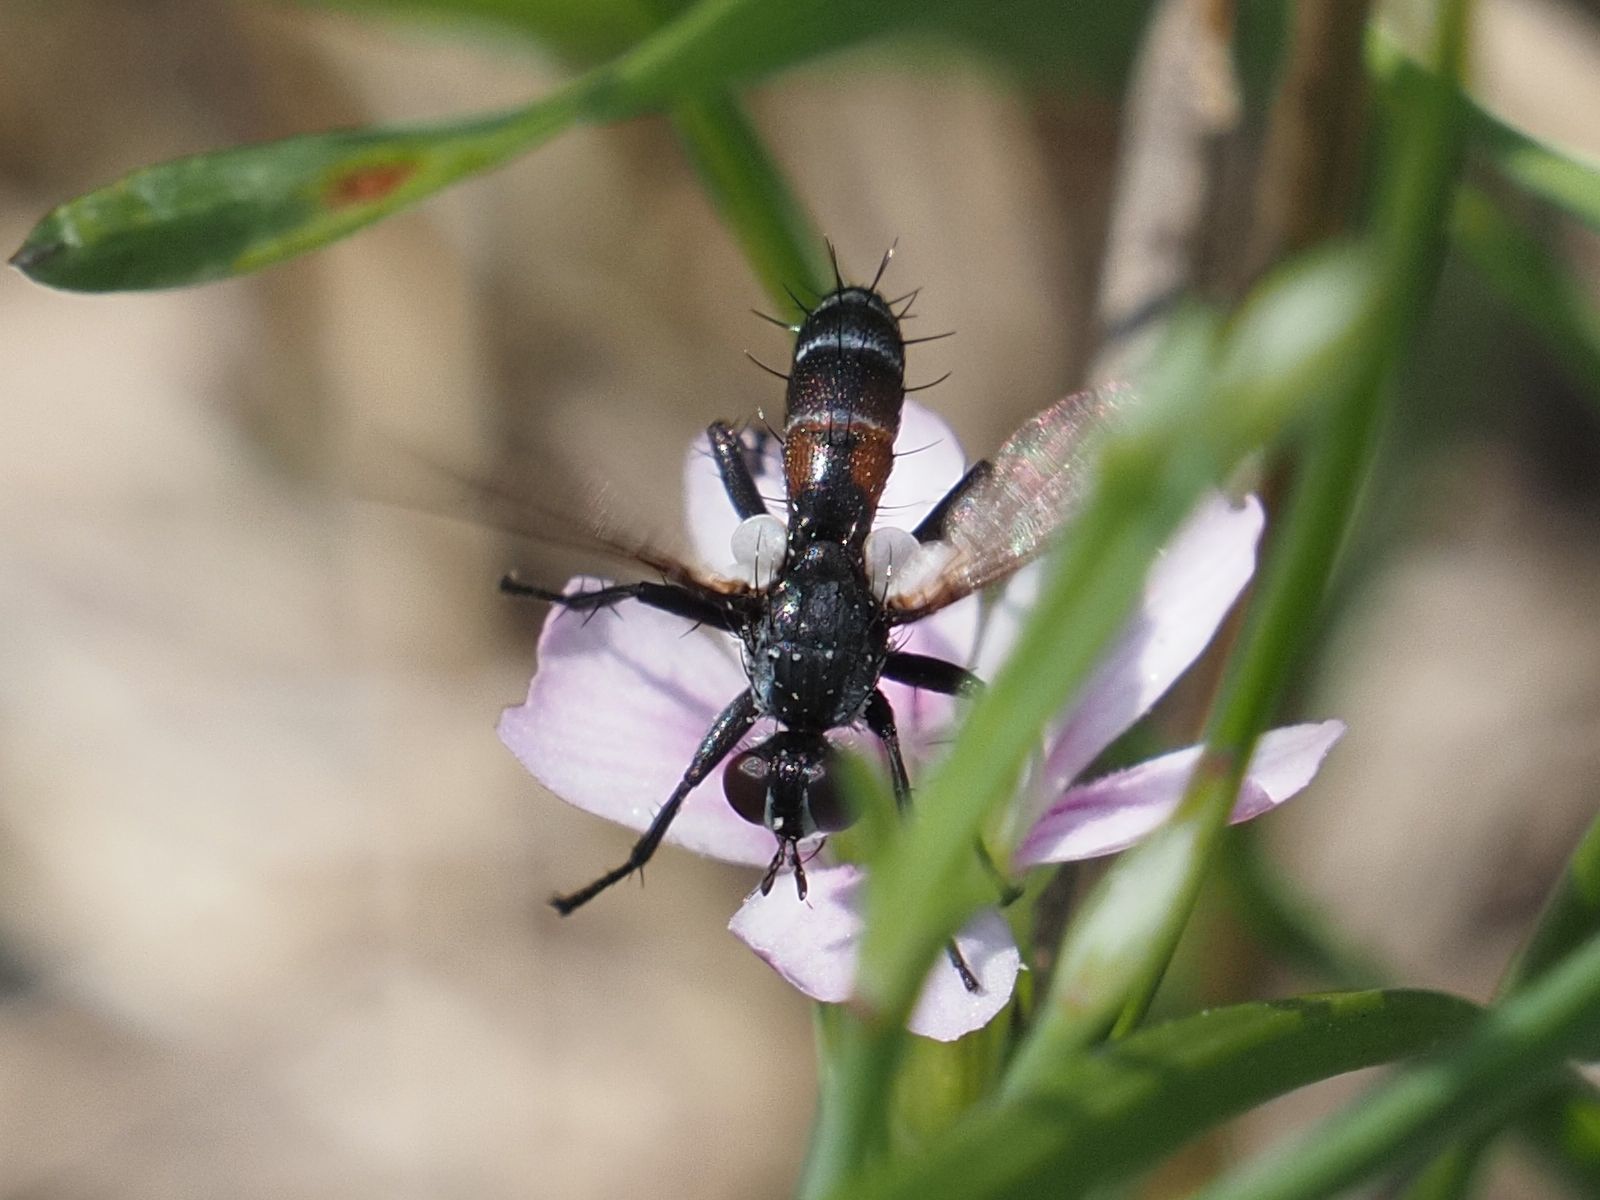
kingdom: Animalia
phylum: Arthropoda
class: Insecta
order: Diptera
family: Tachinidae
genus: Cylindromyia
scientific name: Cylindromyia pusilla
